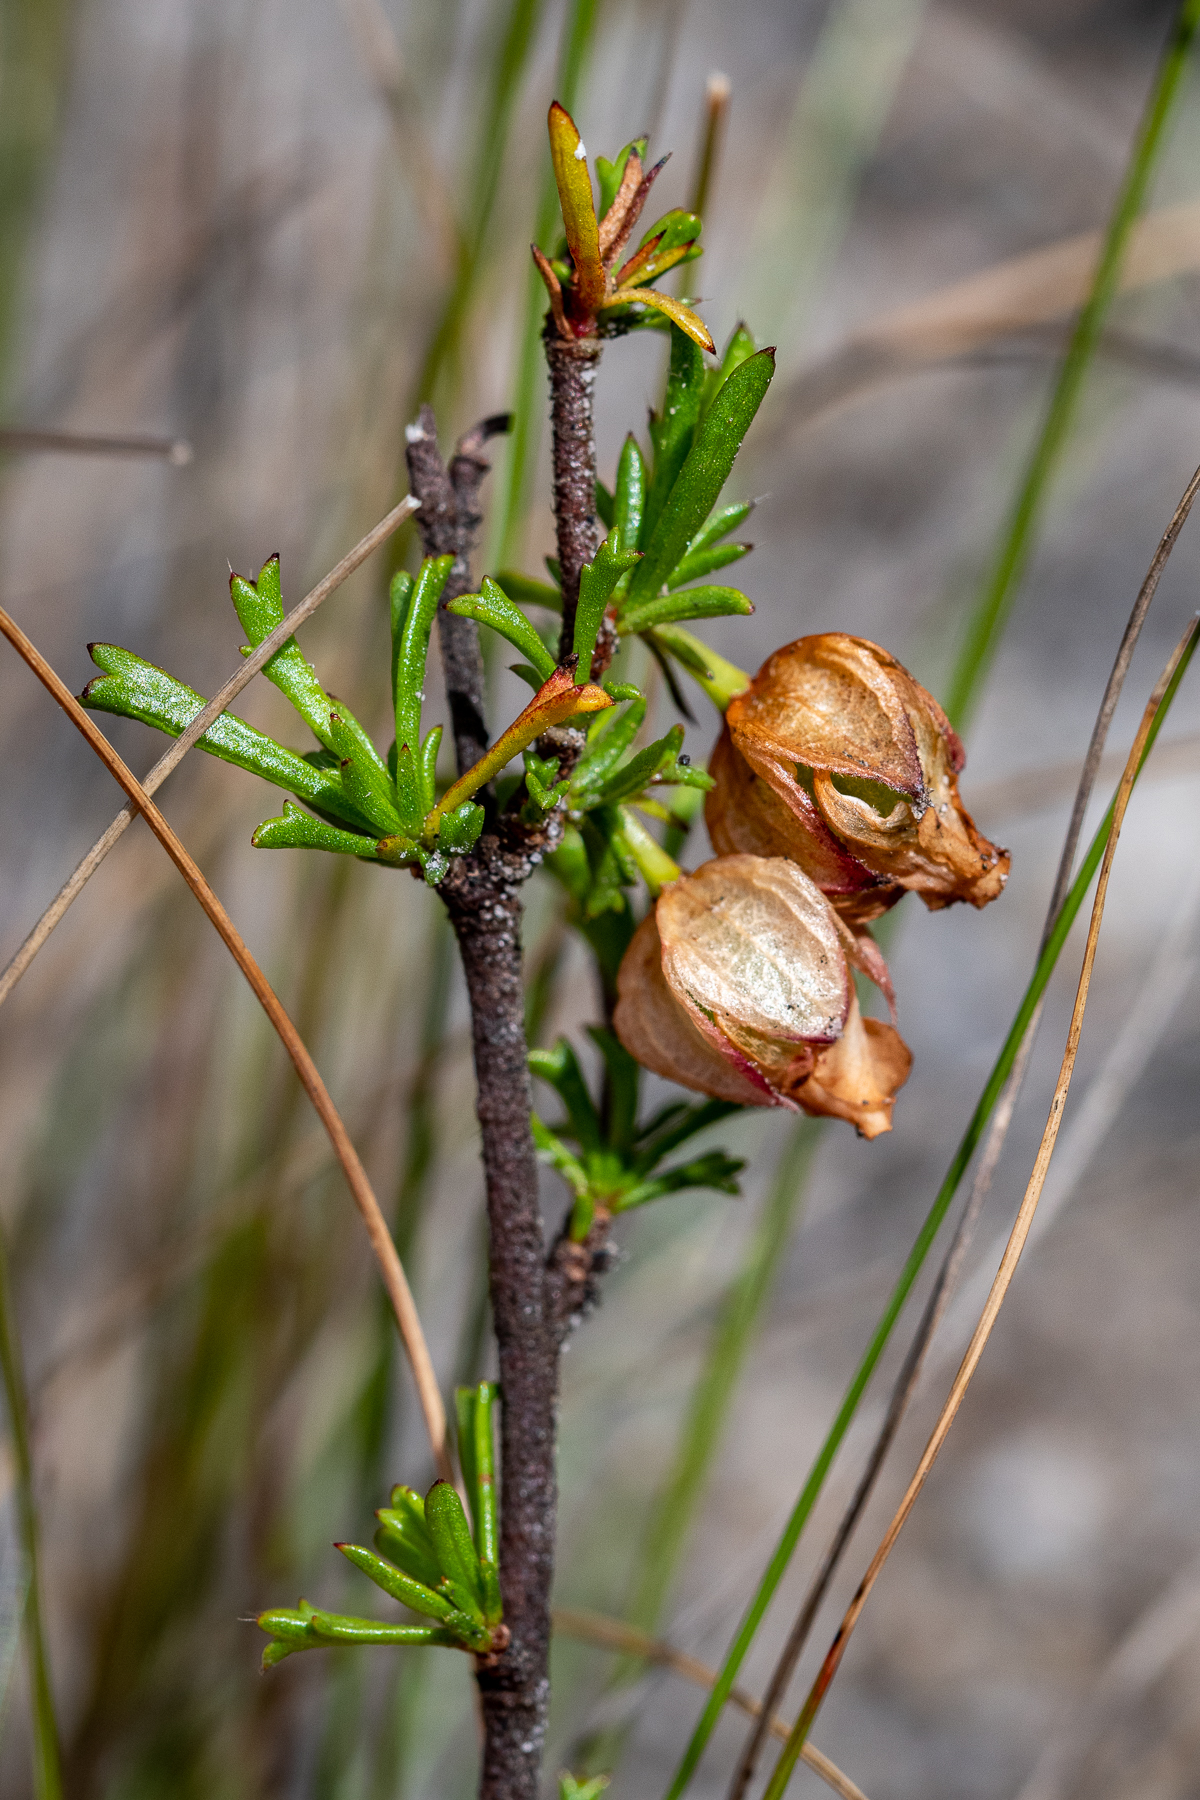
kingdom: Plantae
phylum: Tracheophyta
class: Magnoliopsida
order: Malvales
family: Malvaceae
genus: Hermannia
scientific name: Hermannia angularis
